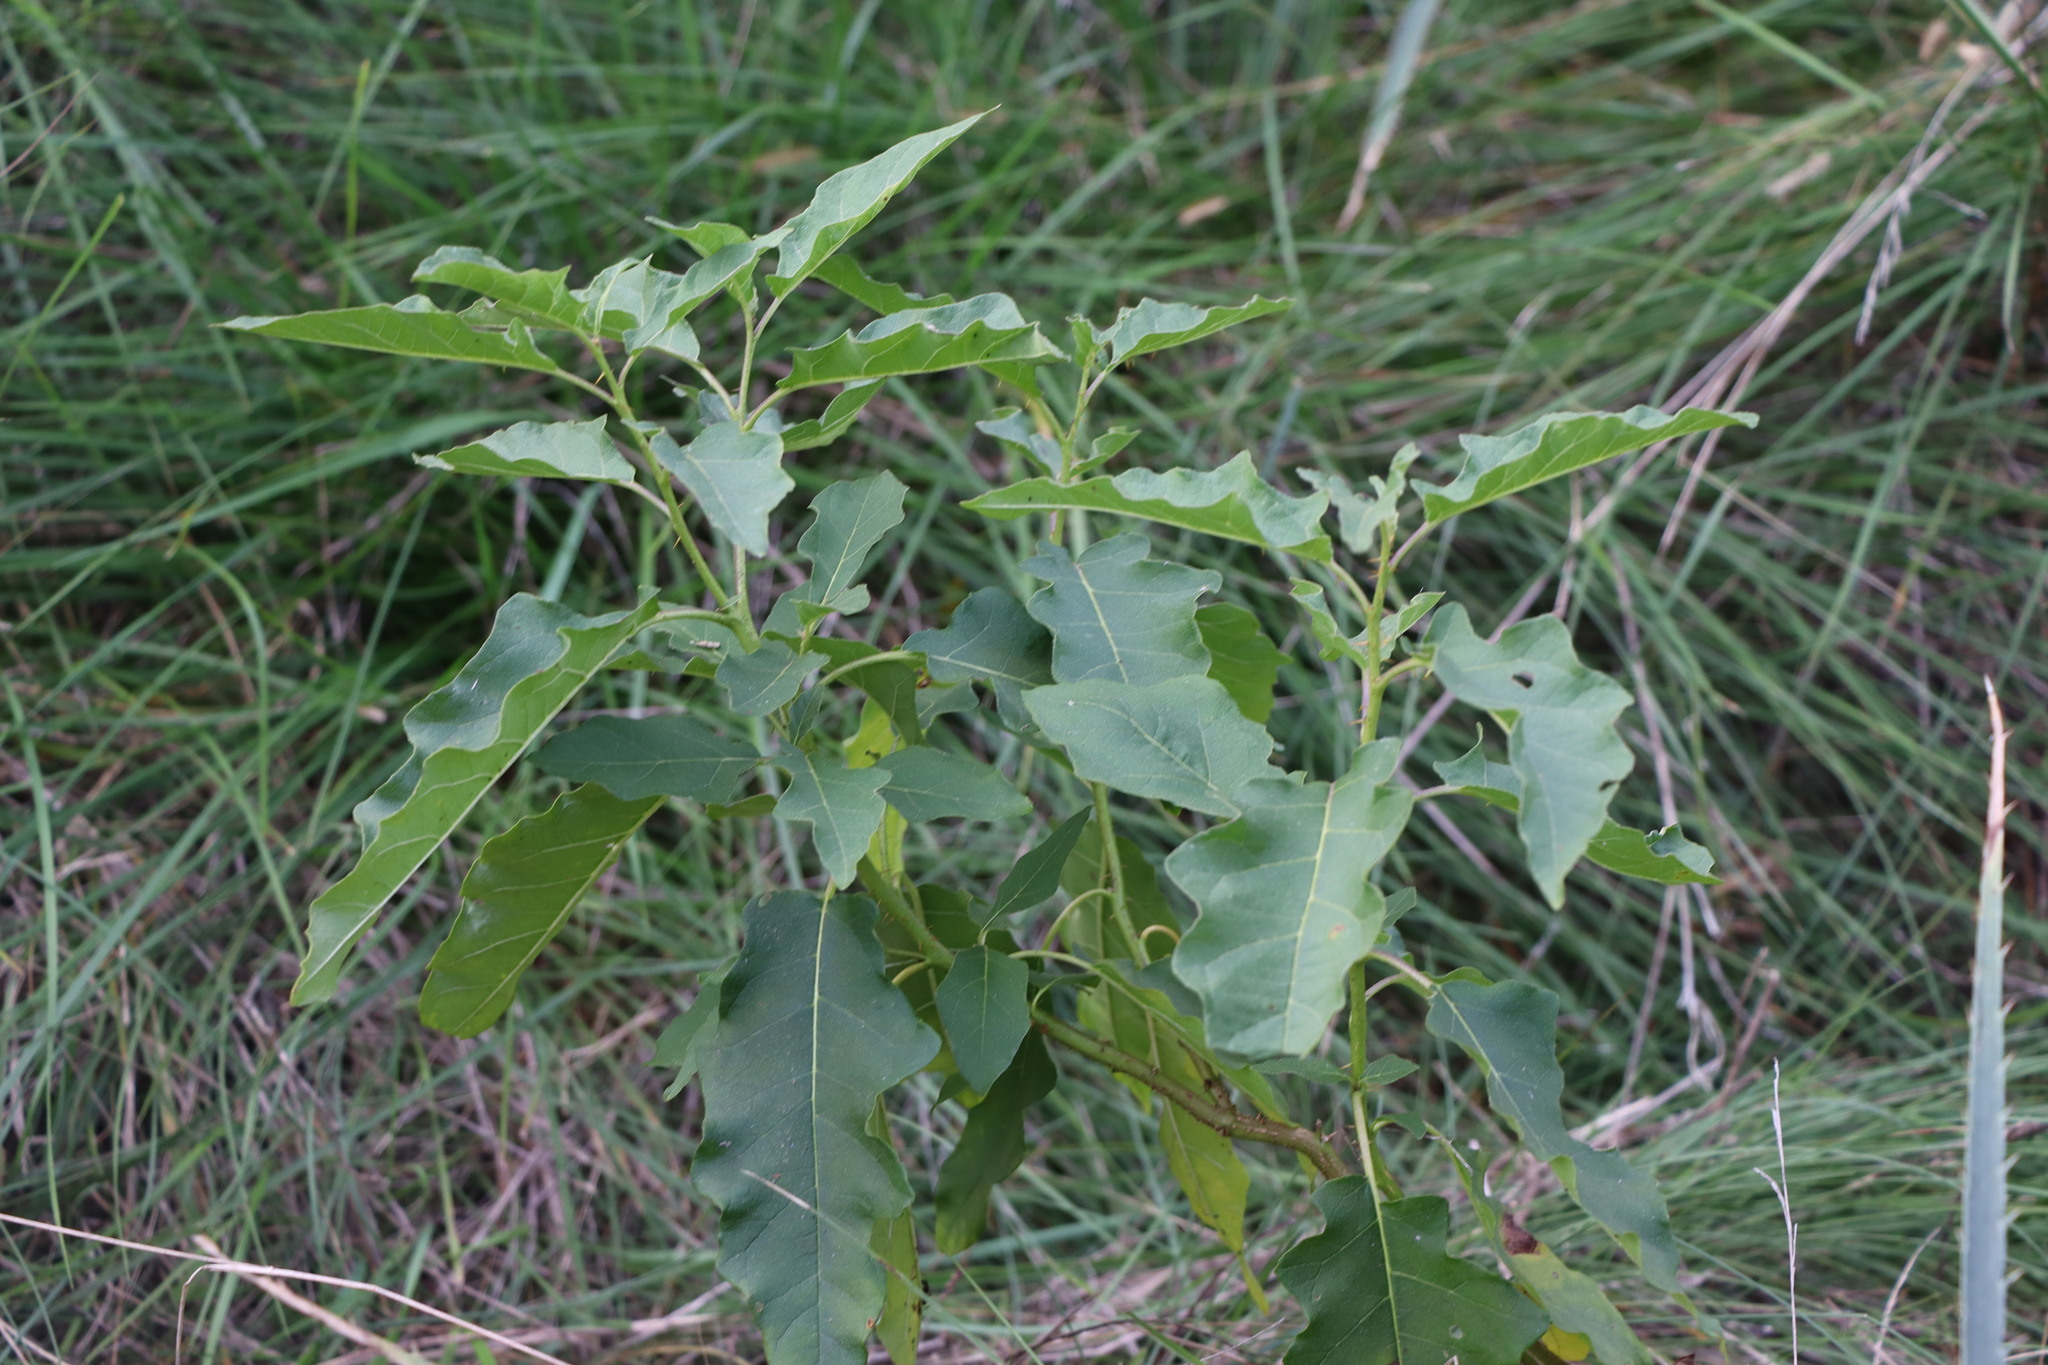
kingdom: Plantae
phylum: Tracheophyta
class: Magnoliopsida
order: Solanales
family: Solanaceae
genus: Solanum
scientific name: Solanum bonariense
